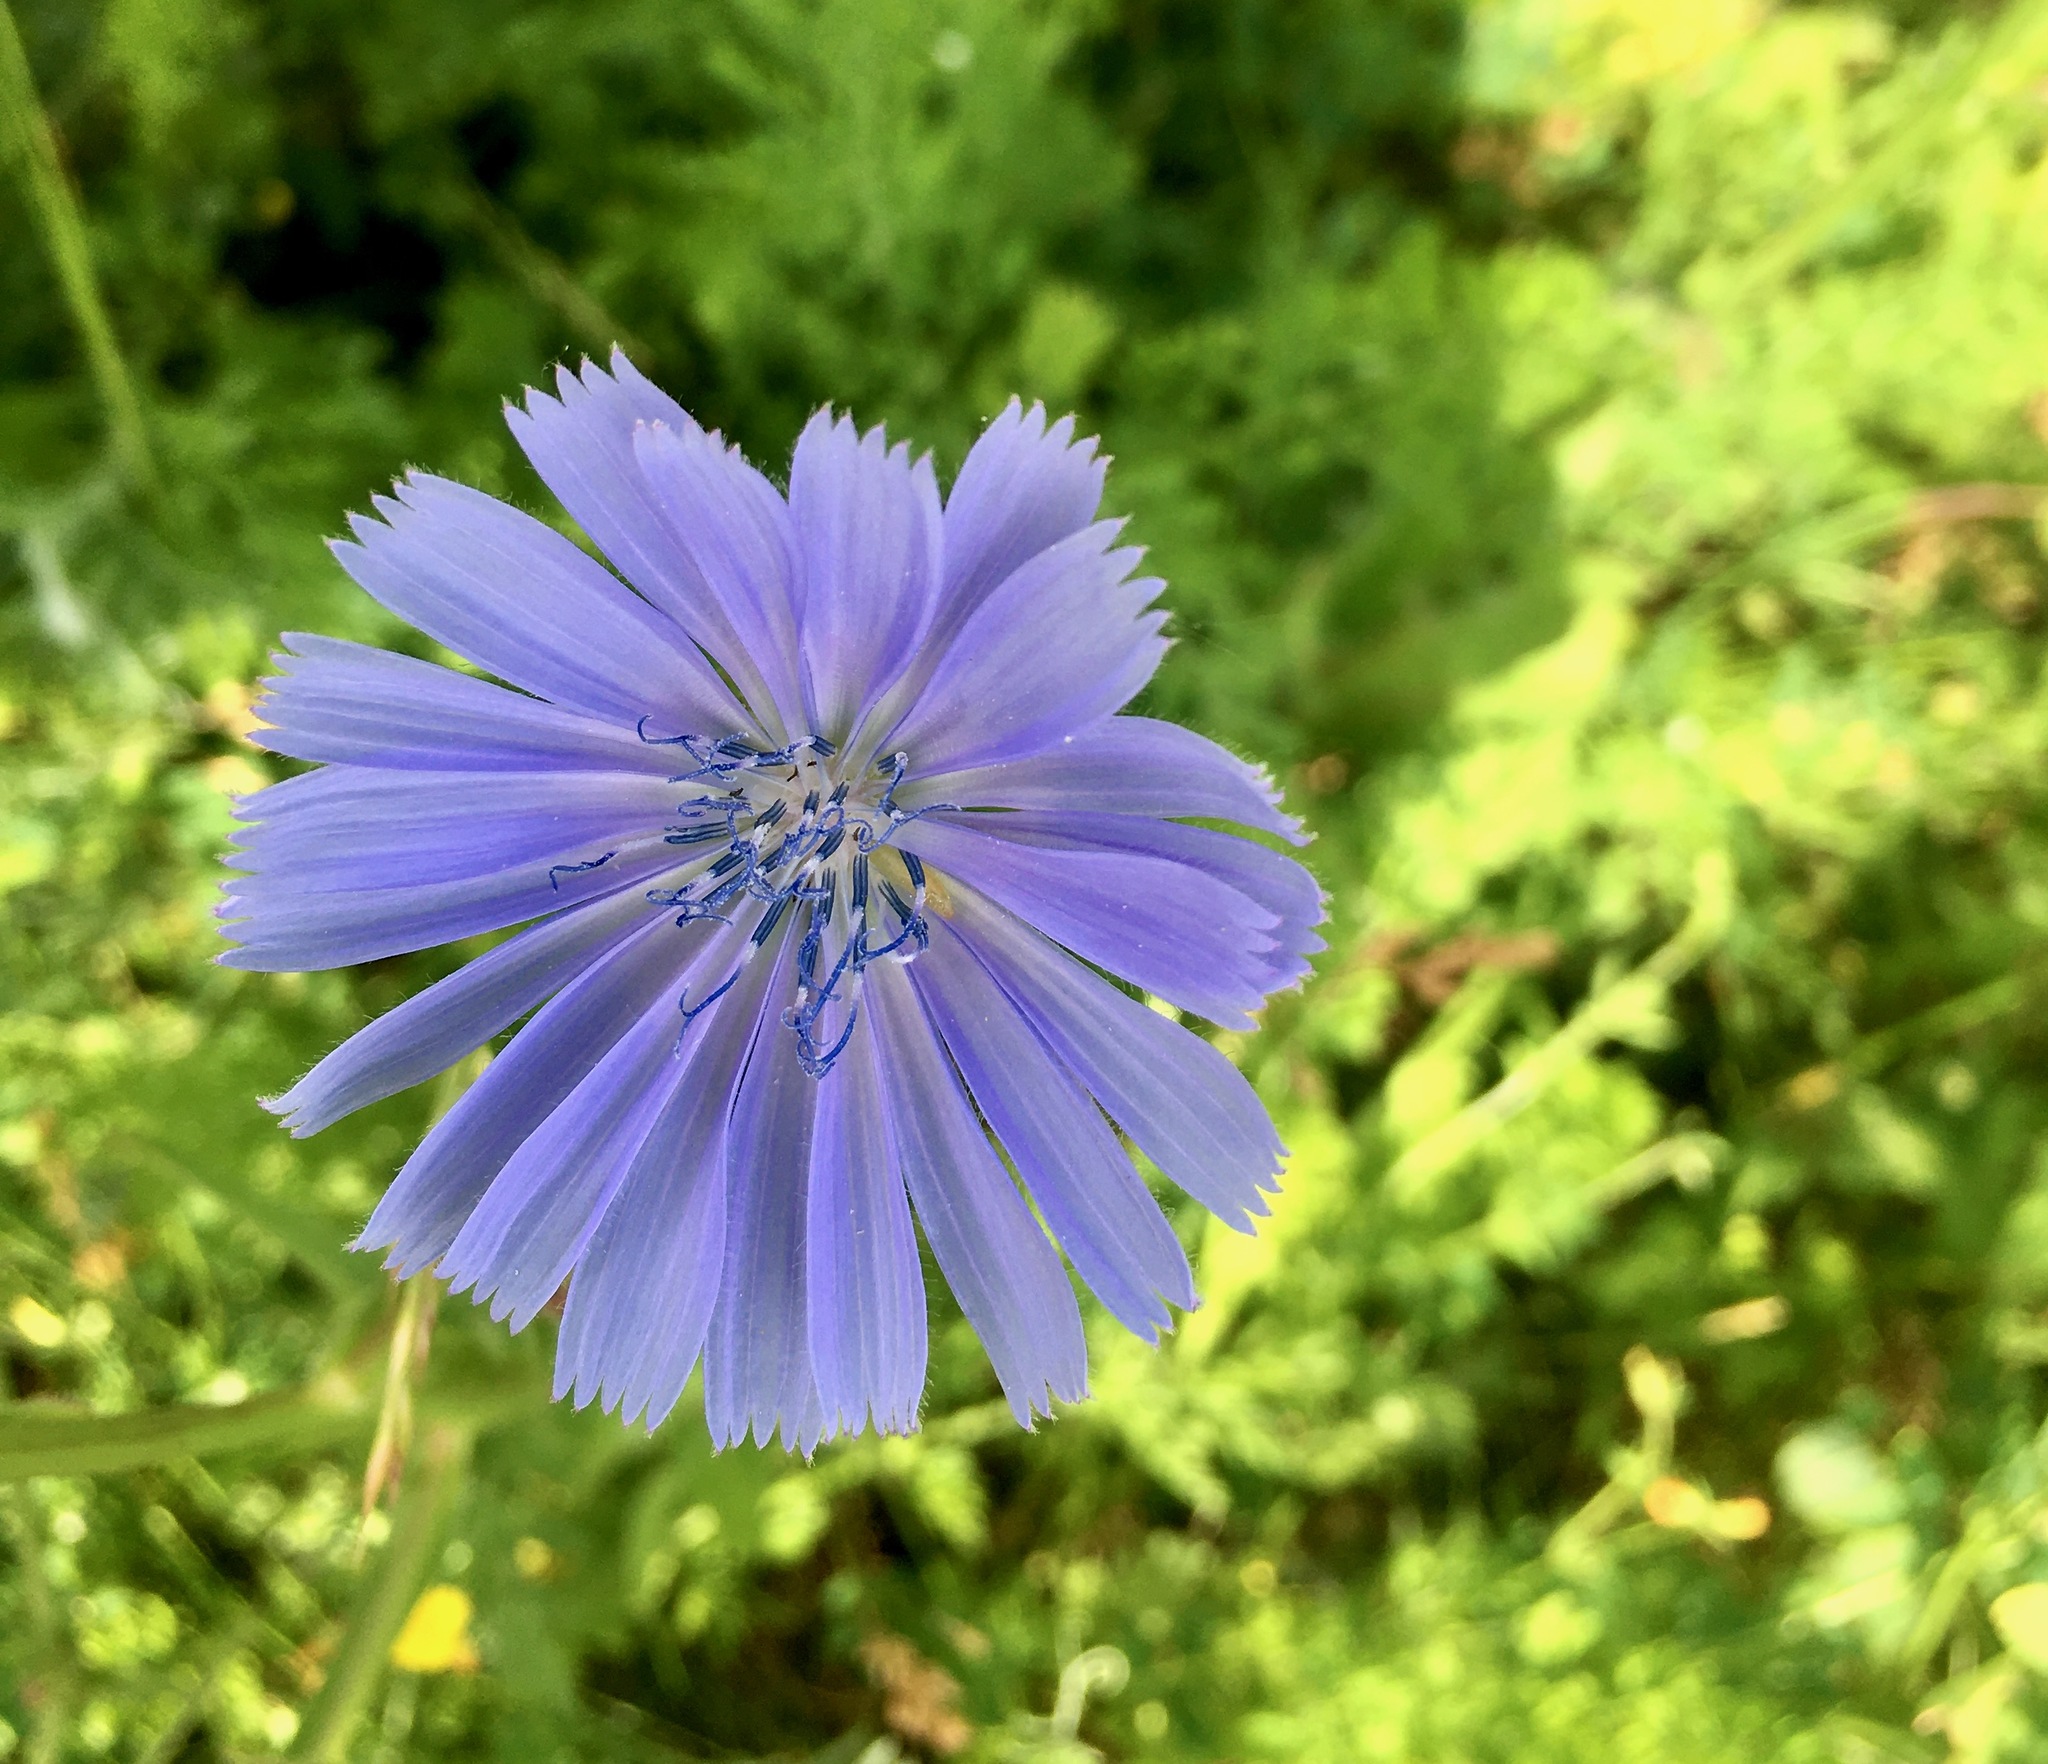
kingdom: Plantae
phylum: Tracheophyta
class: Magnoliopsida
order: Asterales
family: Asteraceae
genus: Cichorium
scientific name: Cichorium intybus
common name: Chicory
